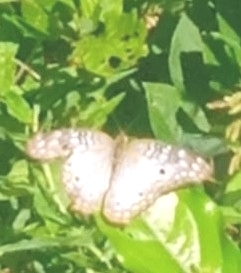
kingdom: Animalia
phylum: Arthropoda
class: Insecta
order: Lepidoptera
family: Nymphalidae
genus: Anartia
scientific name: Anartia jatrophae
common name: White peacock
